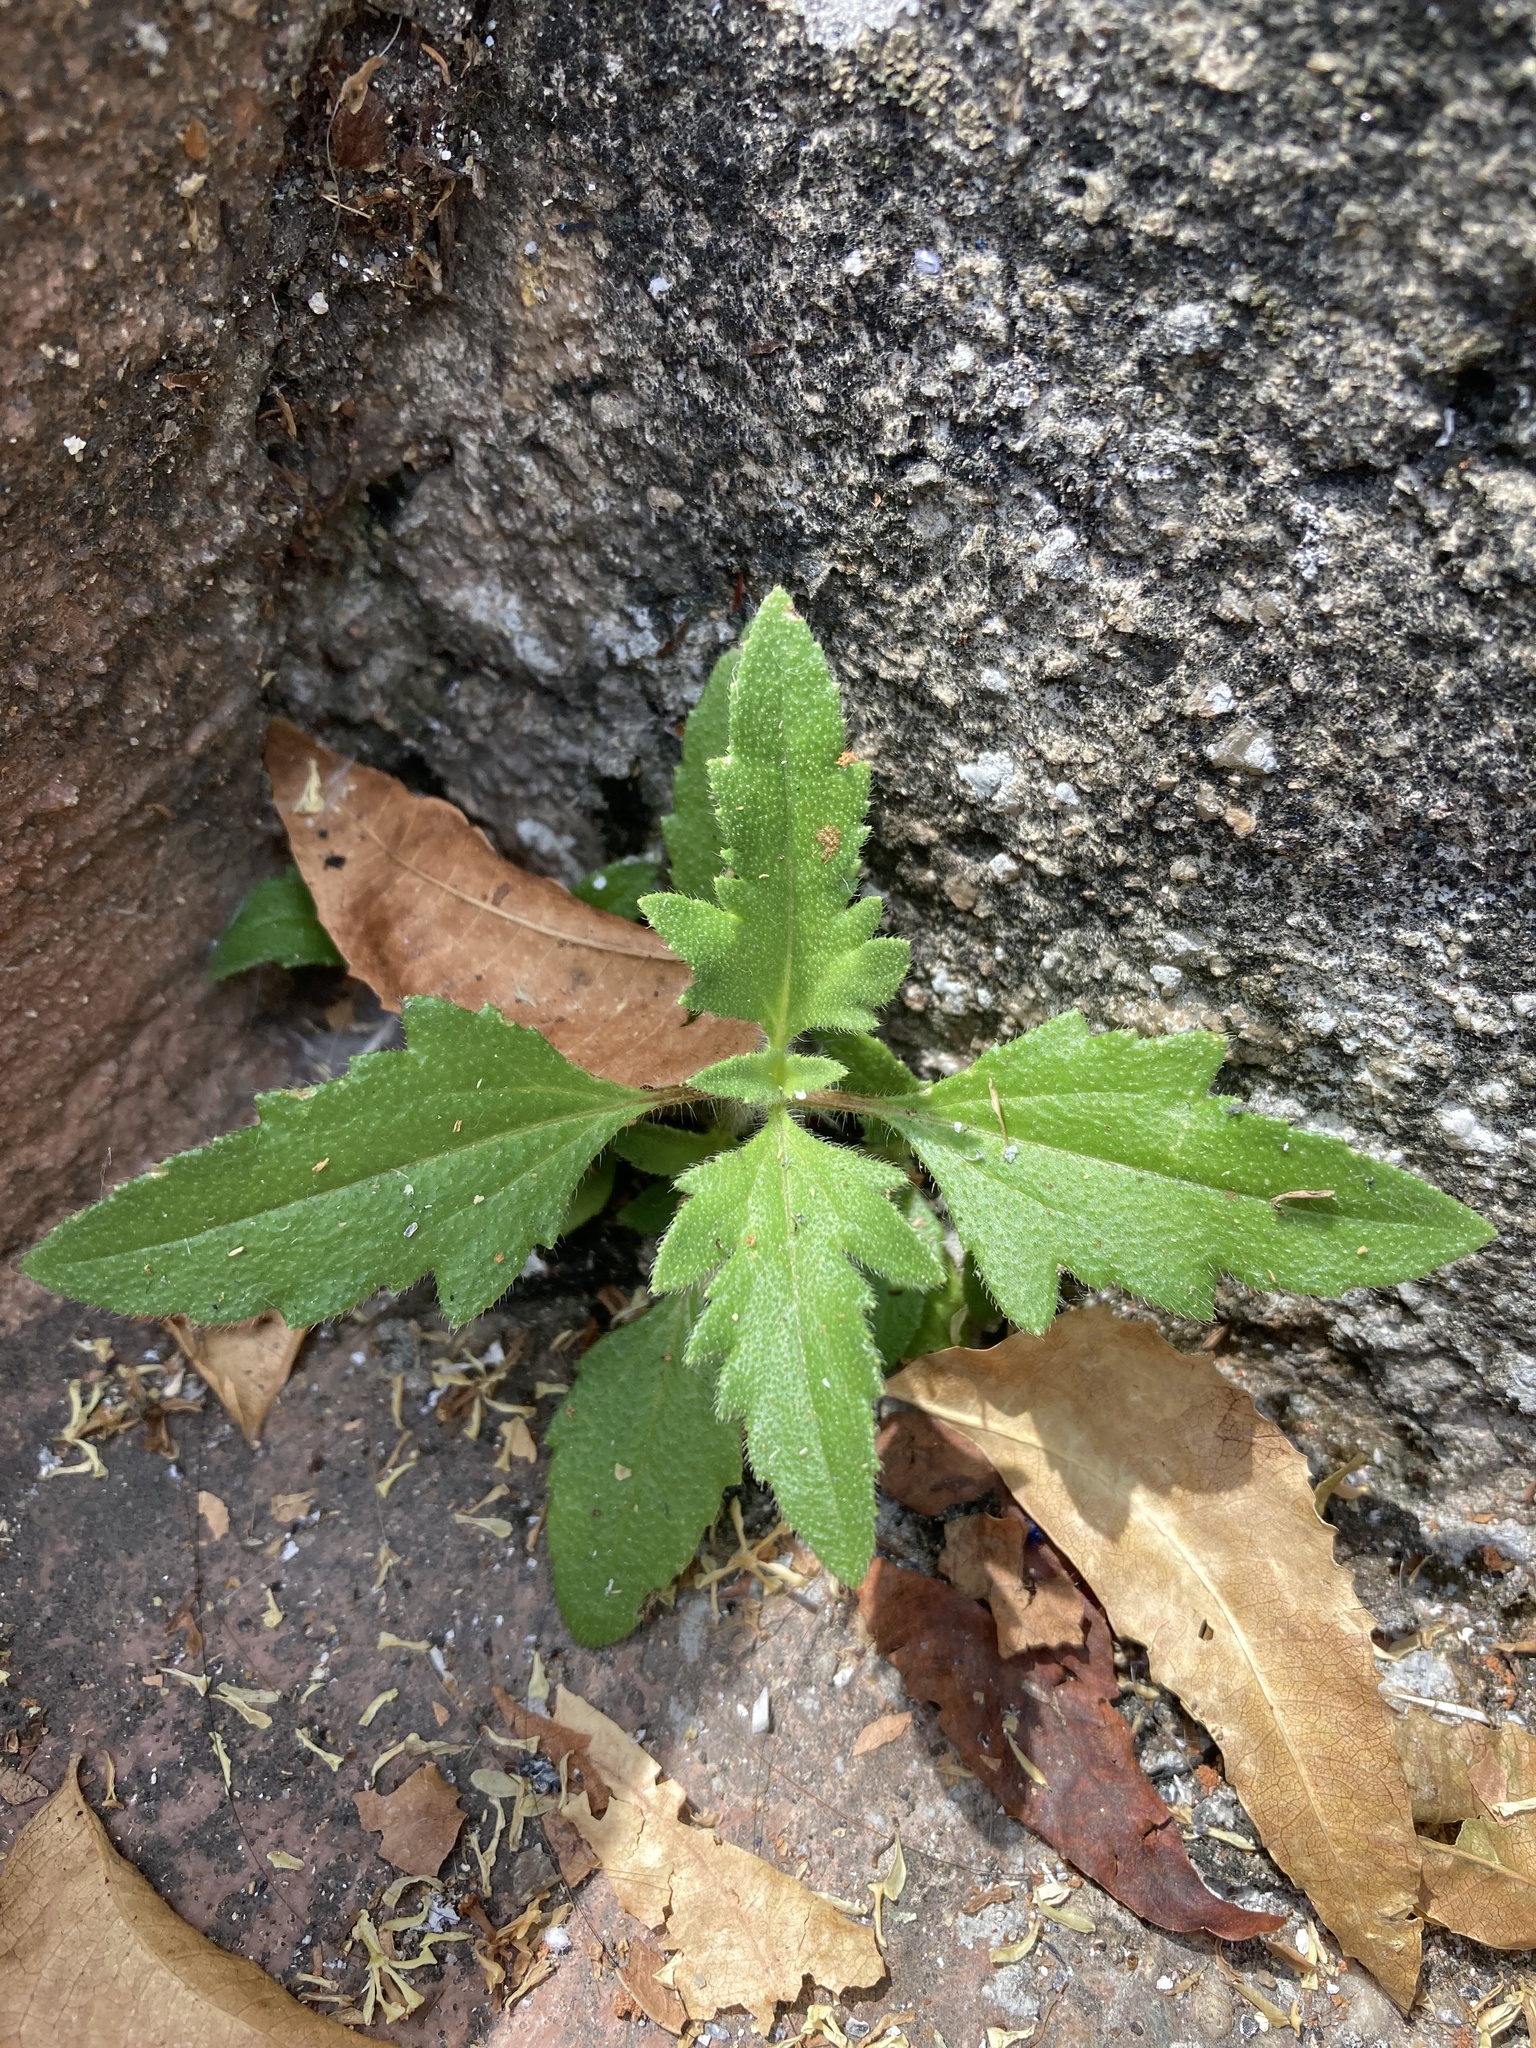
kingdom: Plantae
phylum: Tracheophyta
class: Magnoliopsida
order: Asterales
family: Asteraceae
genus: Tridax
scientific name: Tridax procumbens
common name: Coatbuttons
